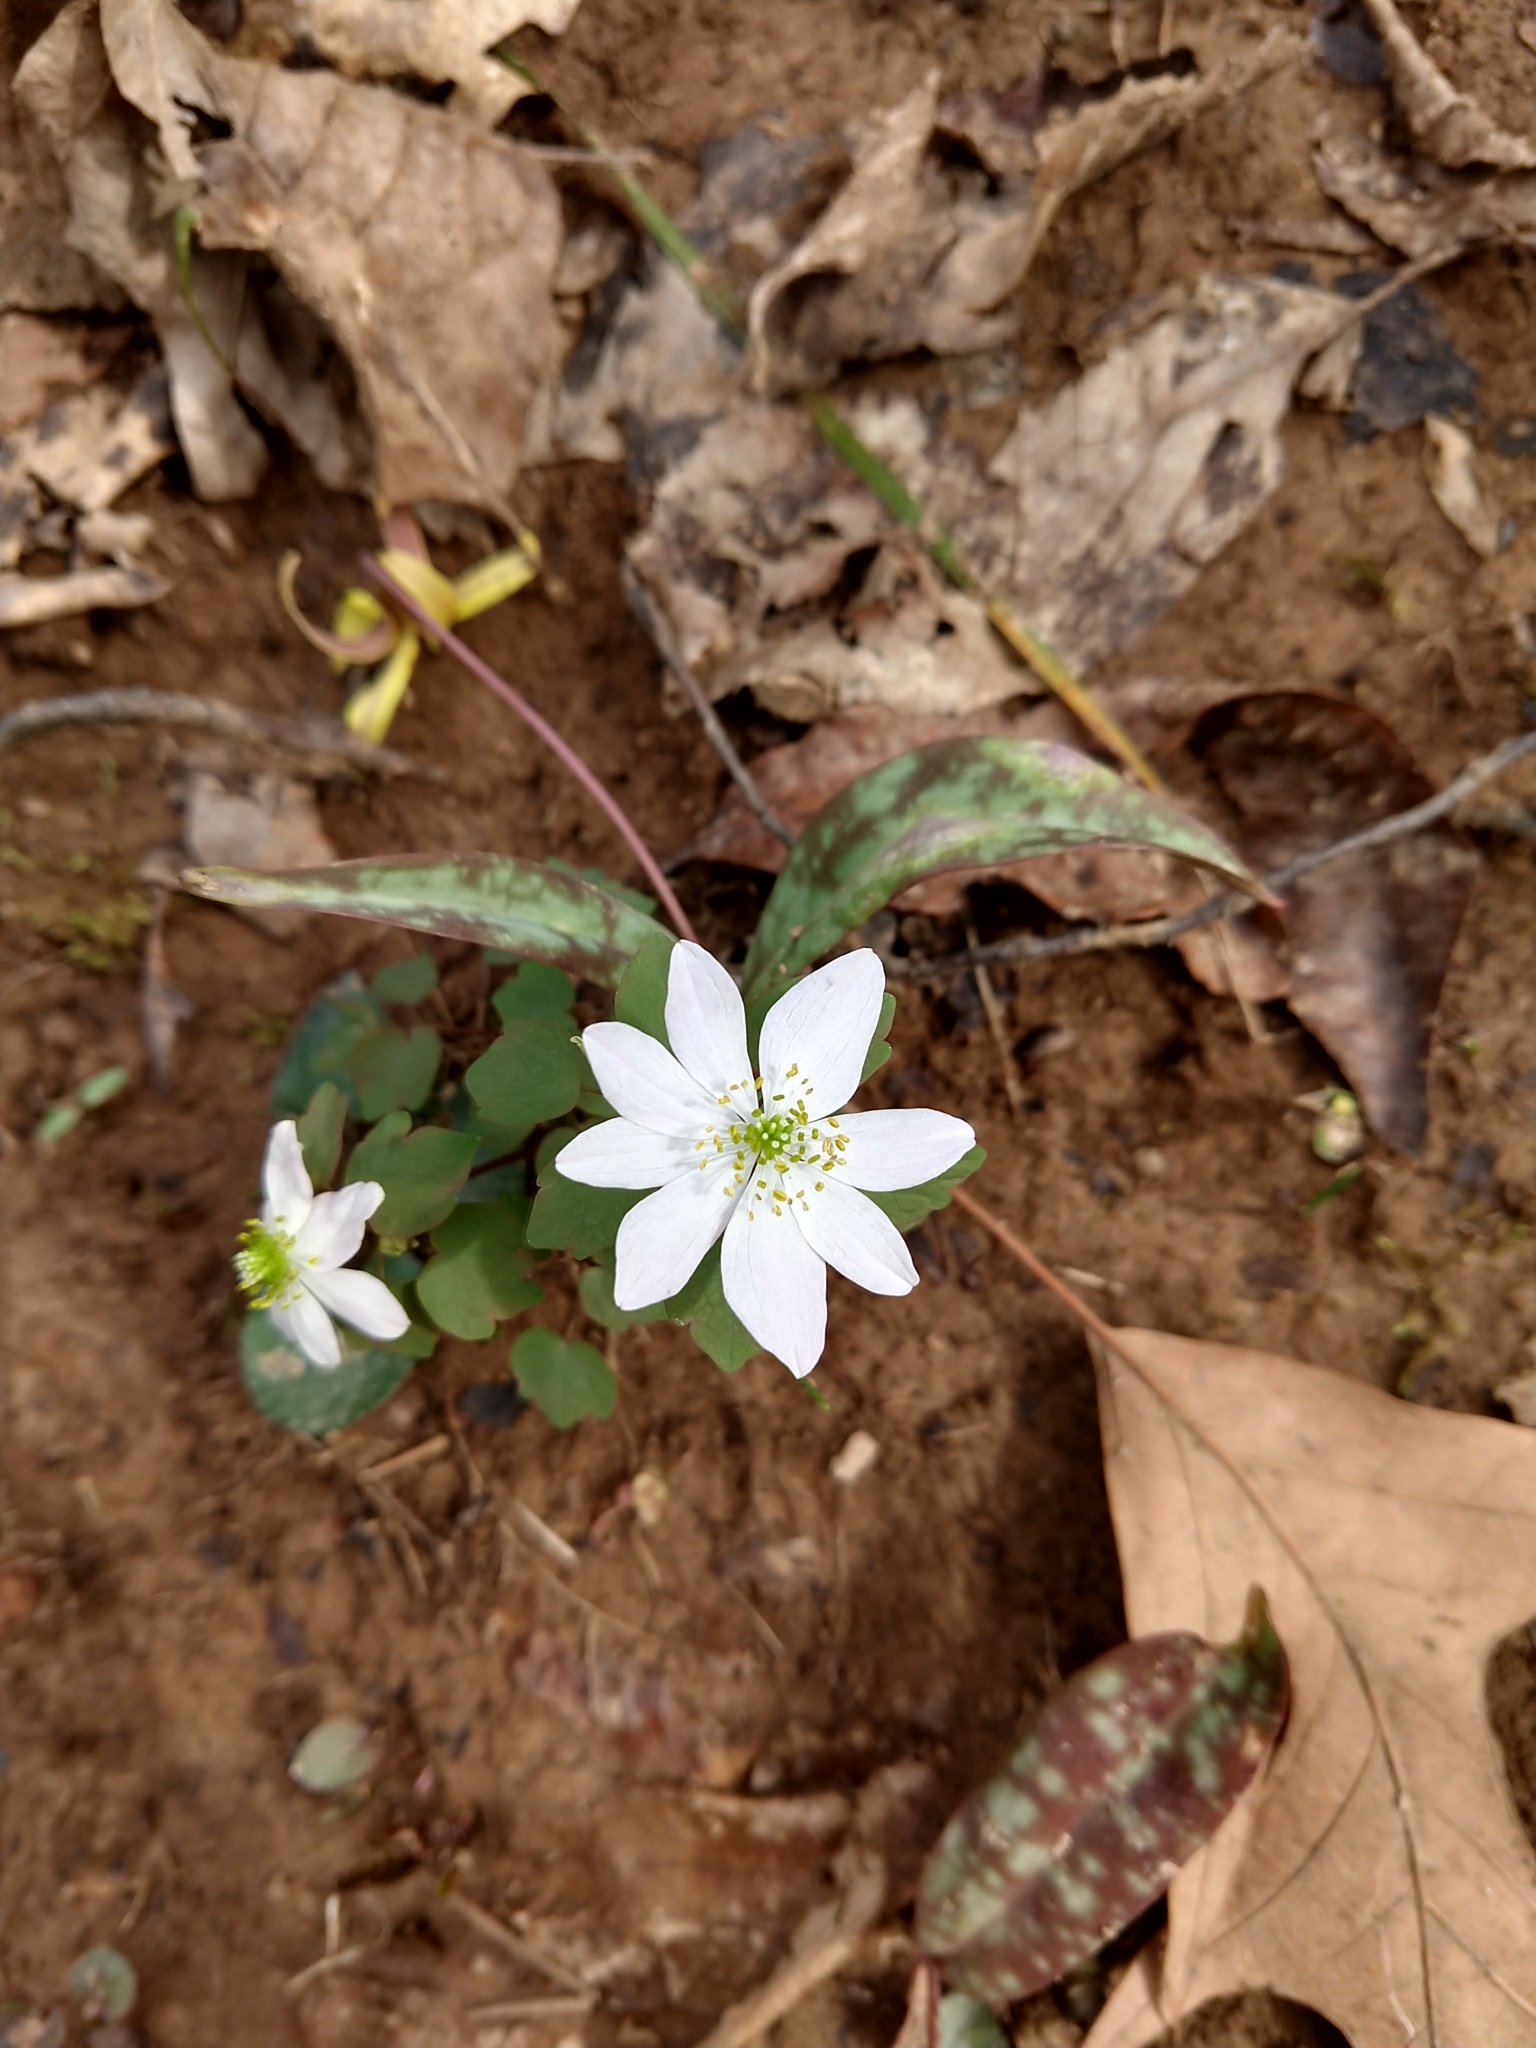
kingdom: Plantae
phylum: Tracheophyta
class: Magnoliopsida
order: Ranunculales
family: Ranunculaceae
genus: Thalictrum
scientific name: Thalictrum thalictroides
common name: Rue-anemone
